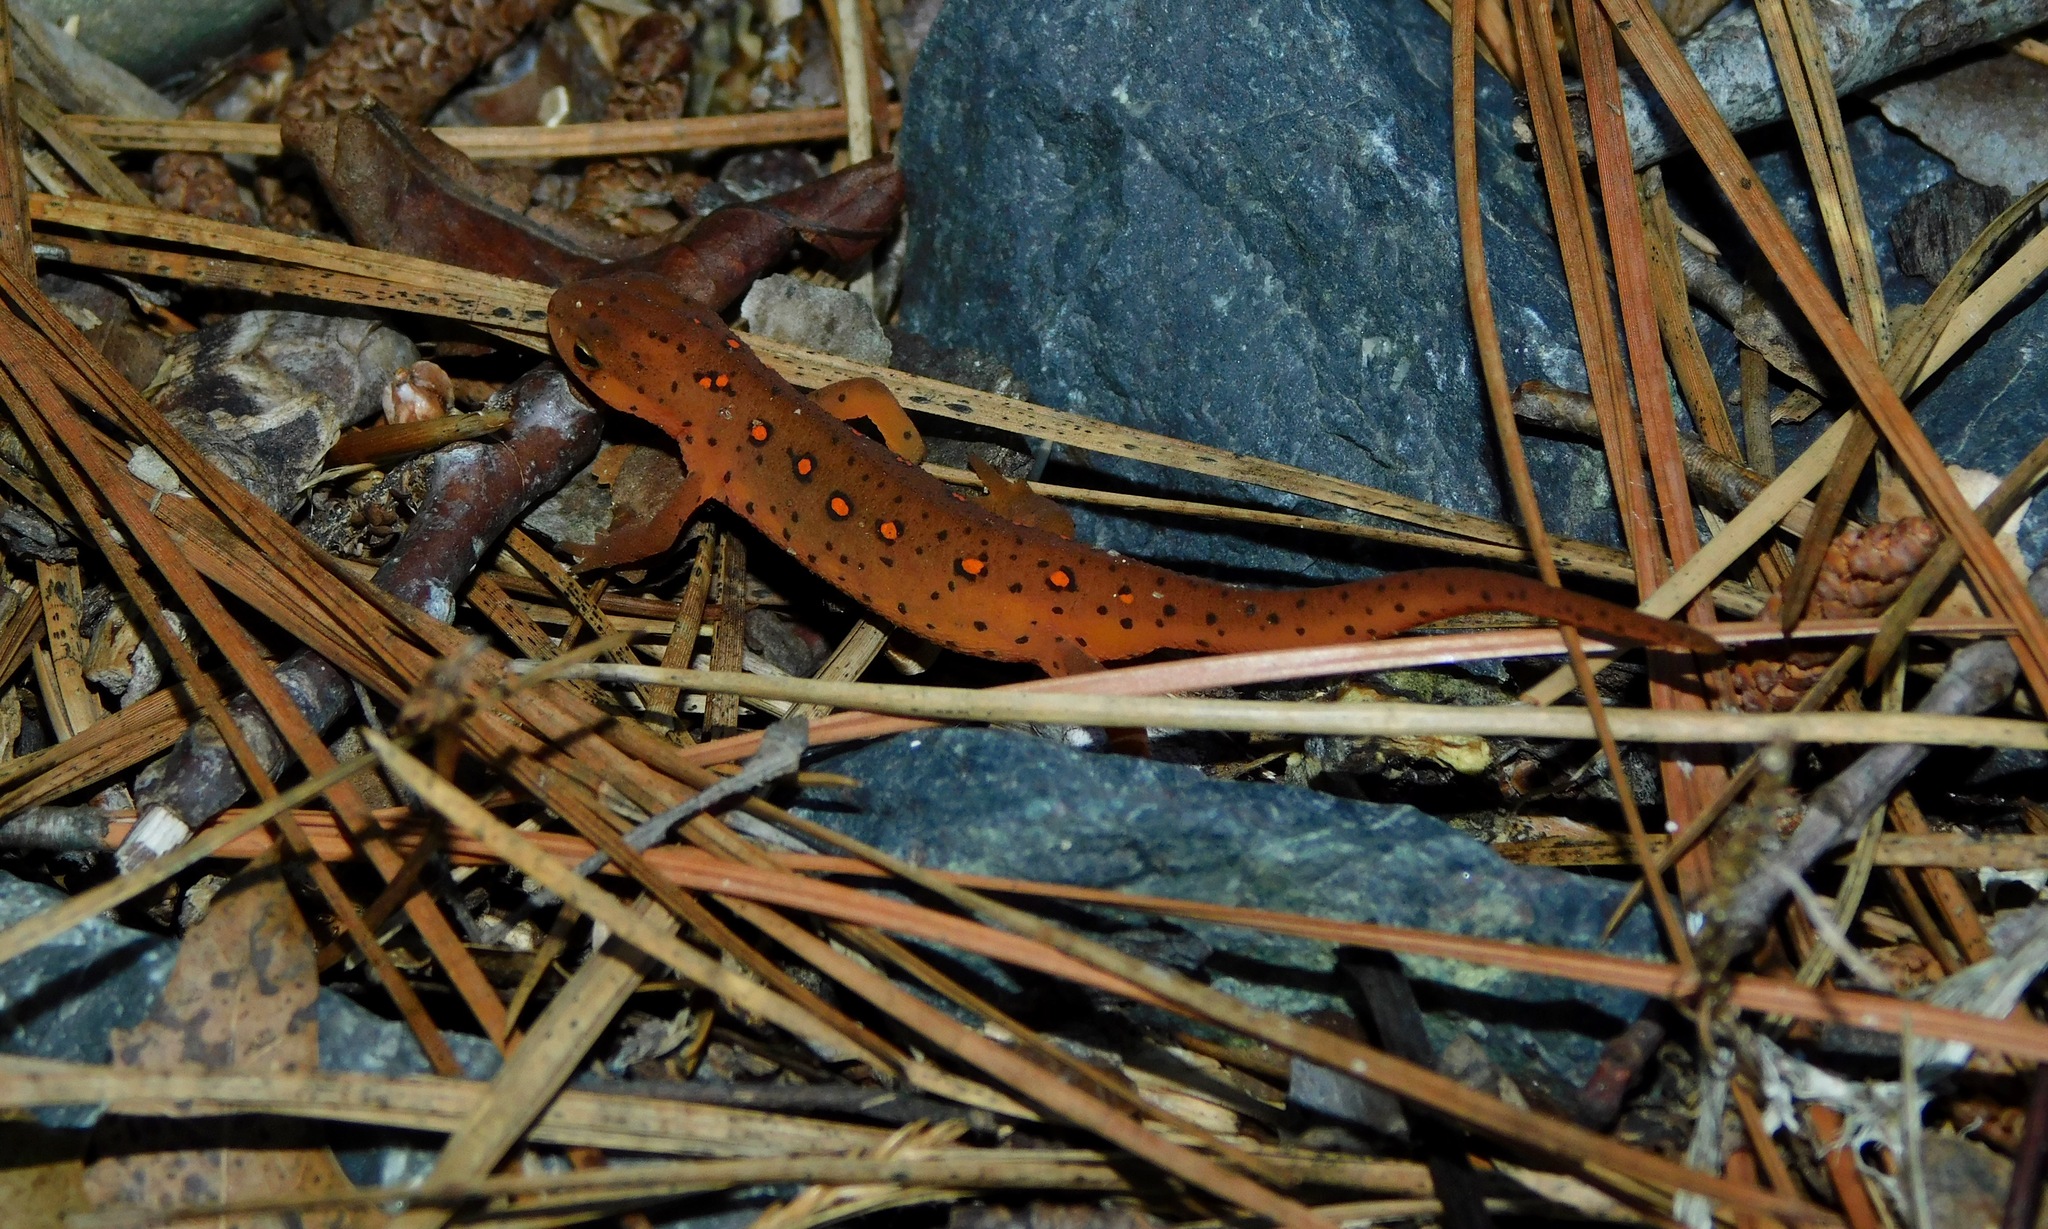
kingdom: Animalia
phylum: Chordata
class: Amphibia
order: Caudata
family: Salamandridae
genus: Notophthalmus
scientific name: Notophthalmus viridescens
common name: Eastern newt
